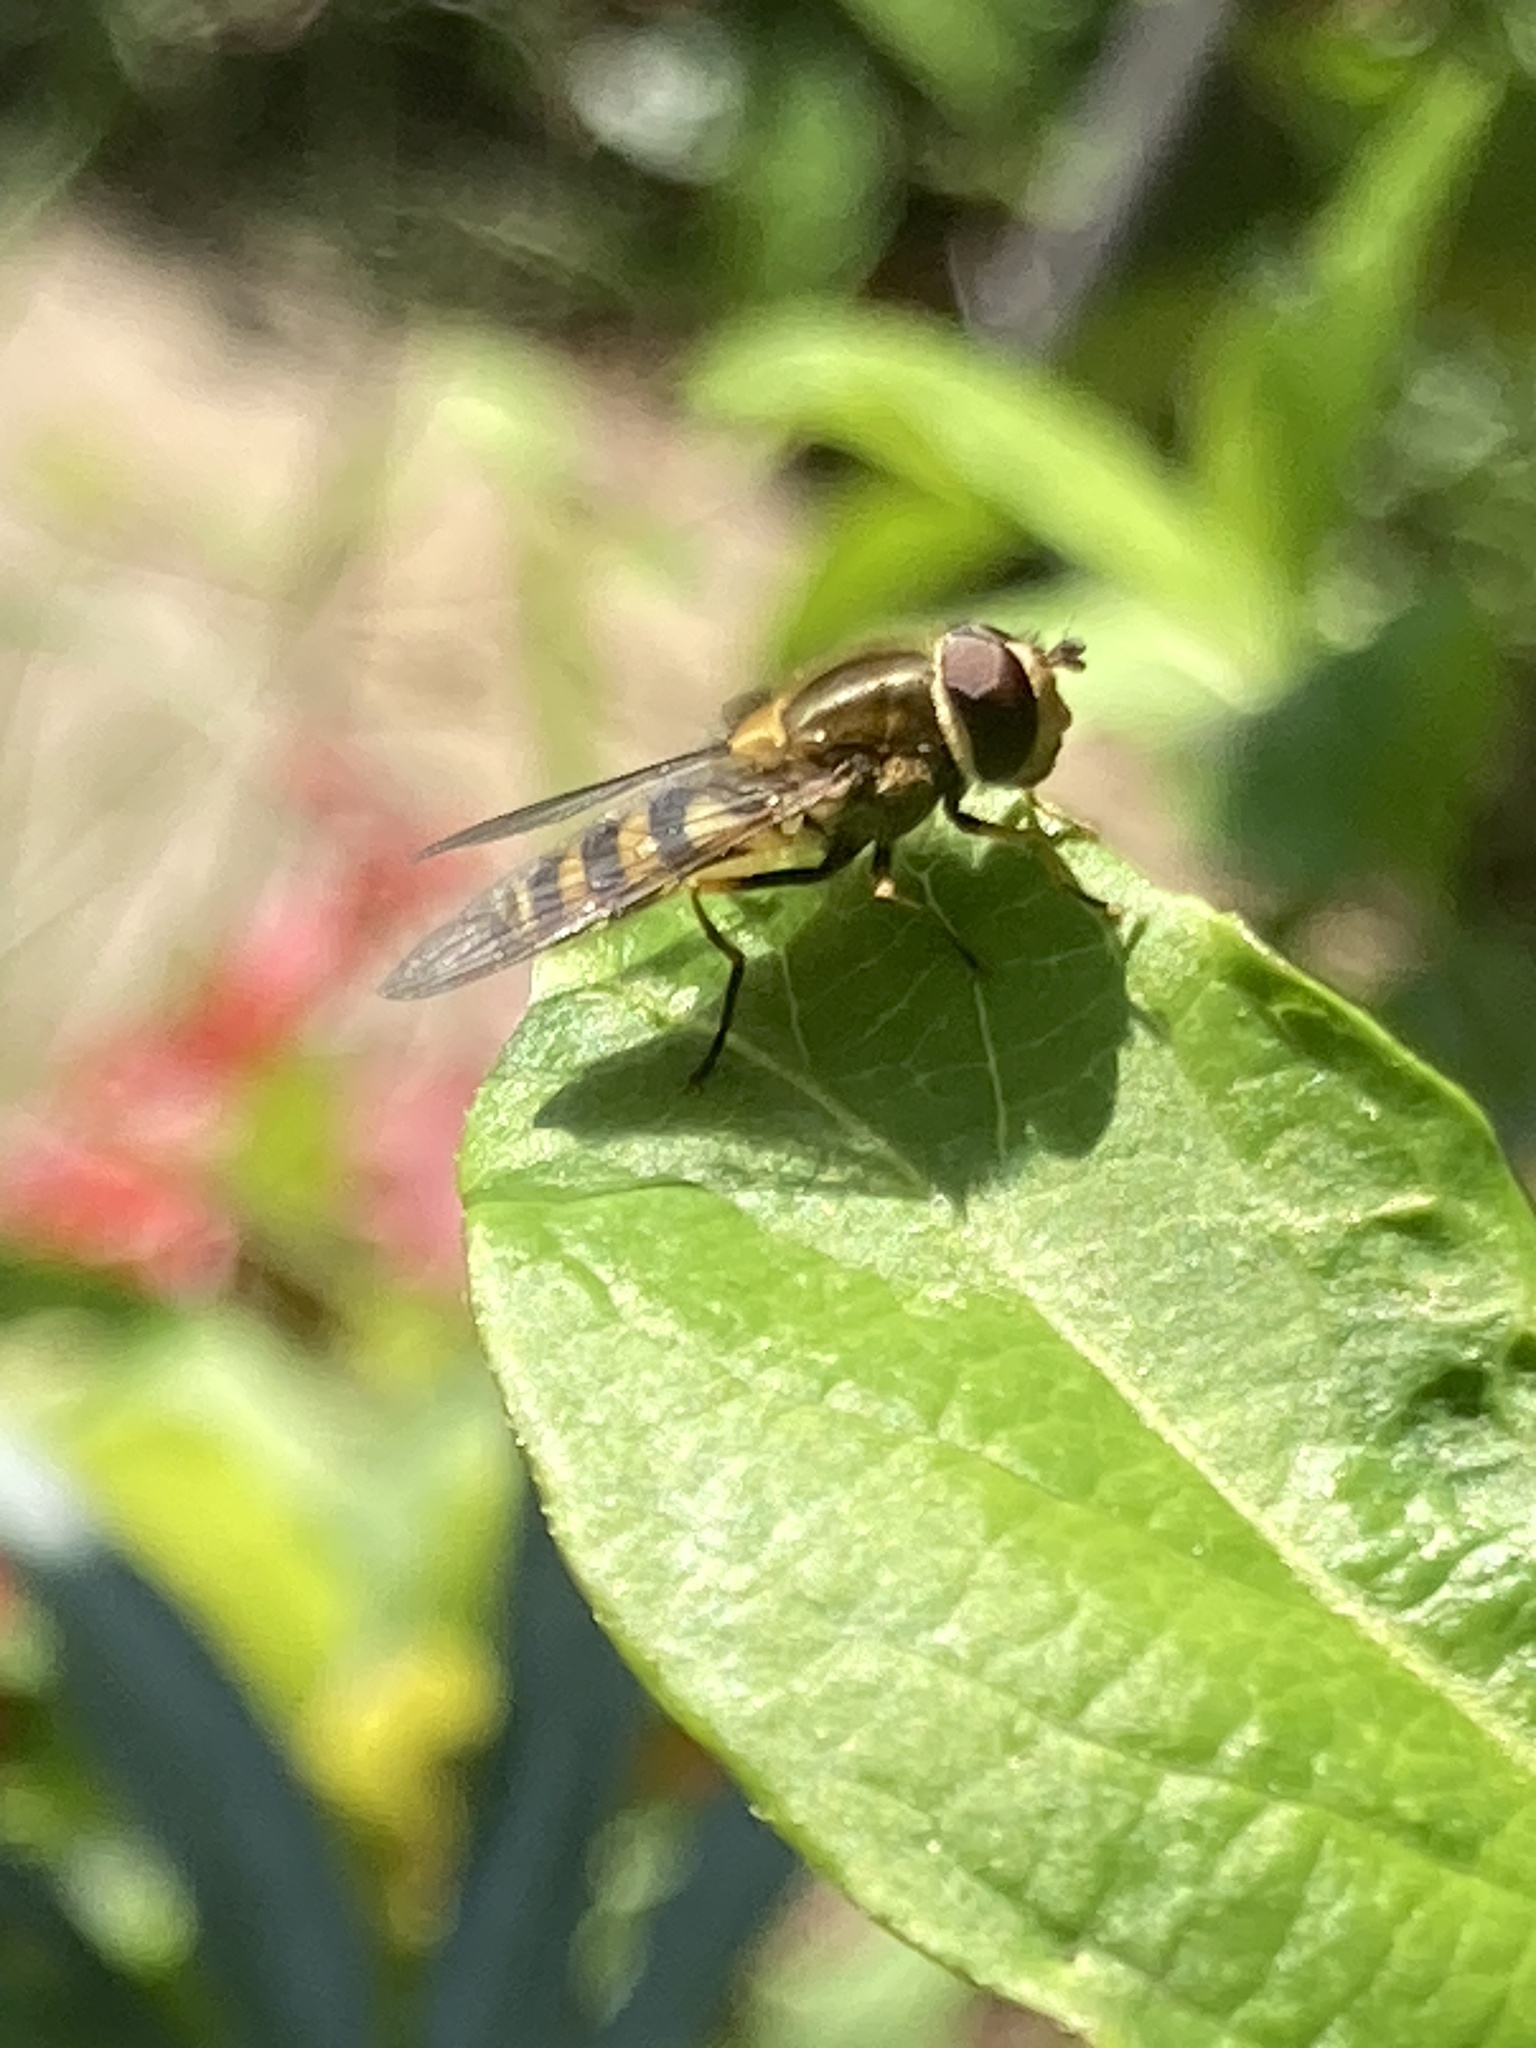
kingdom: Animalia
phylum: Arthropoda
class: Insecta
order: Diptera
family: Syrphidae
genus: Syrphus
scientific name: Syrphus
